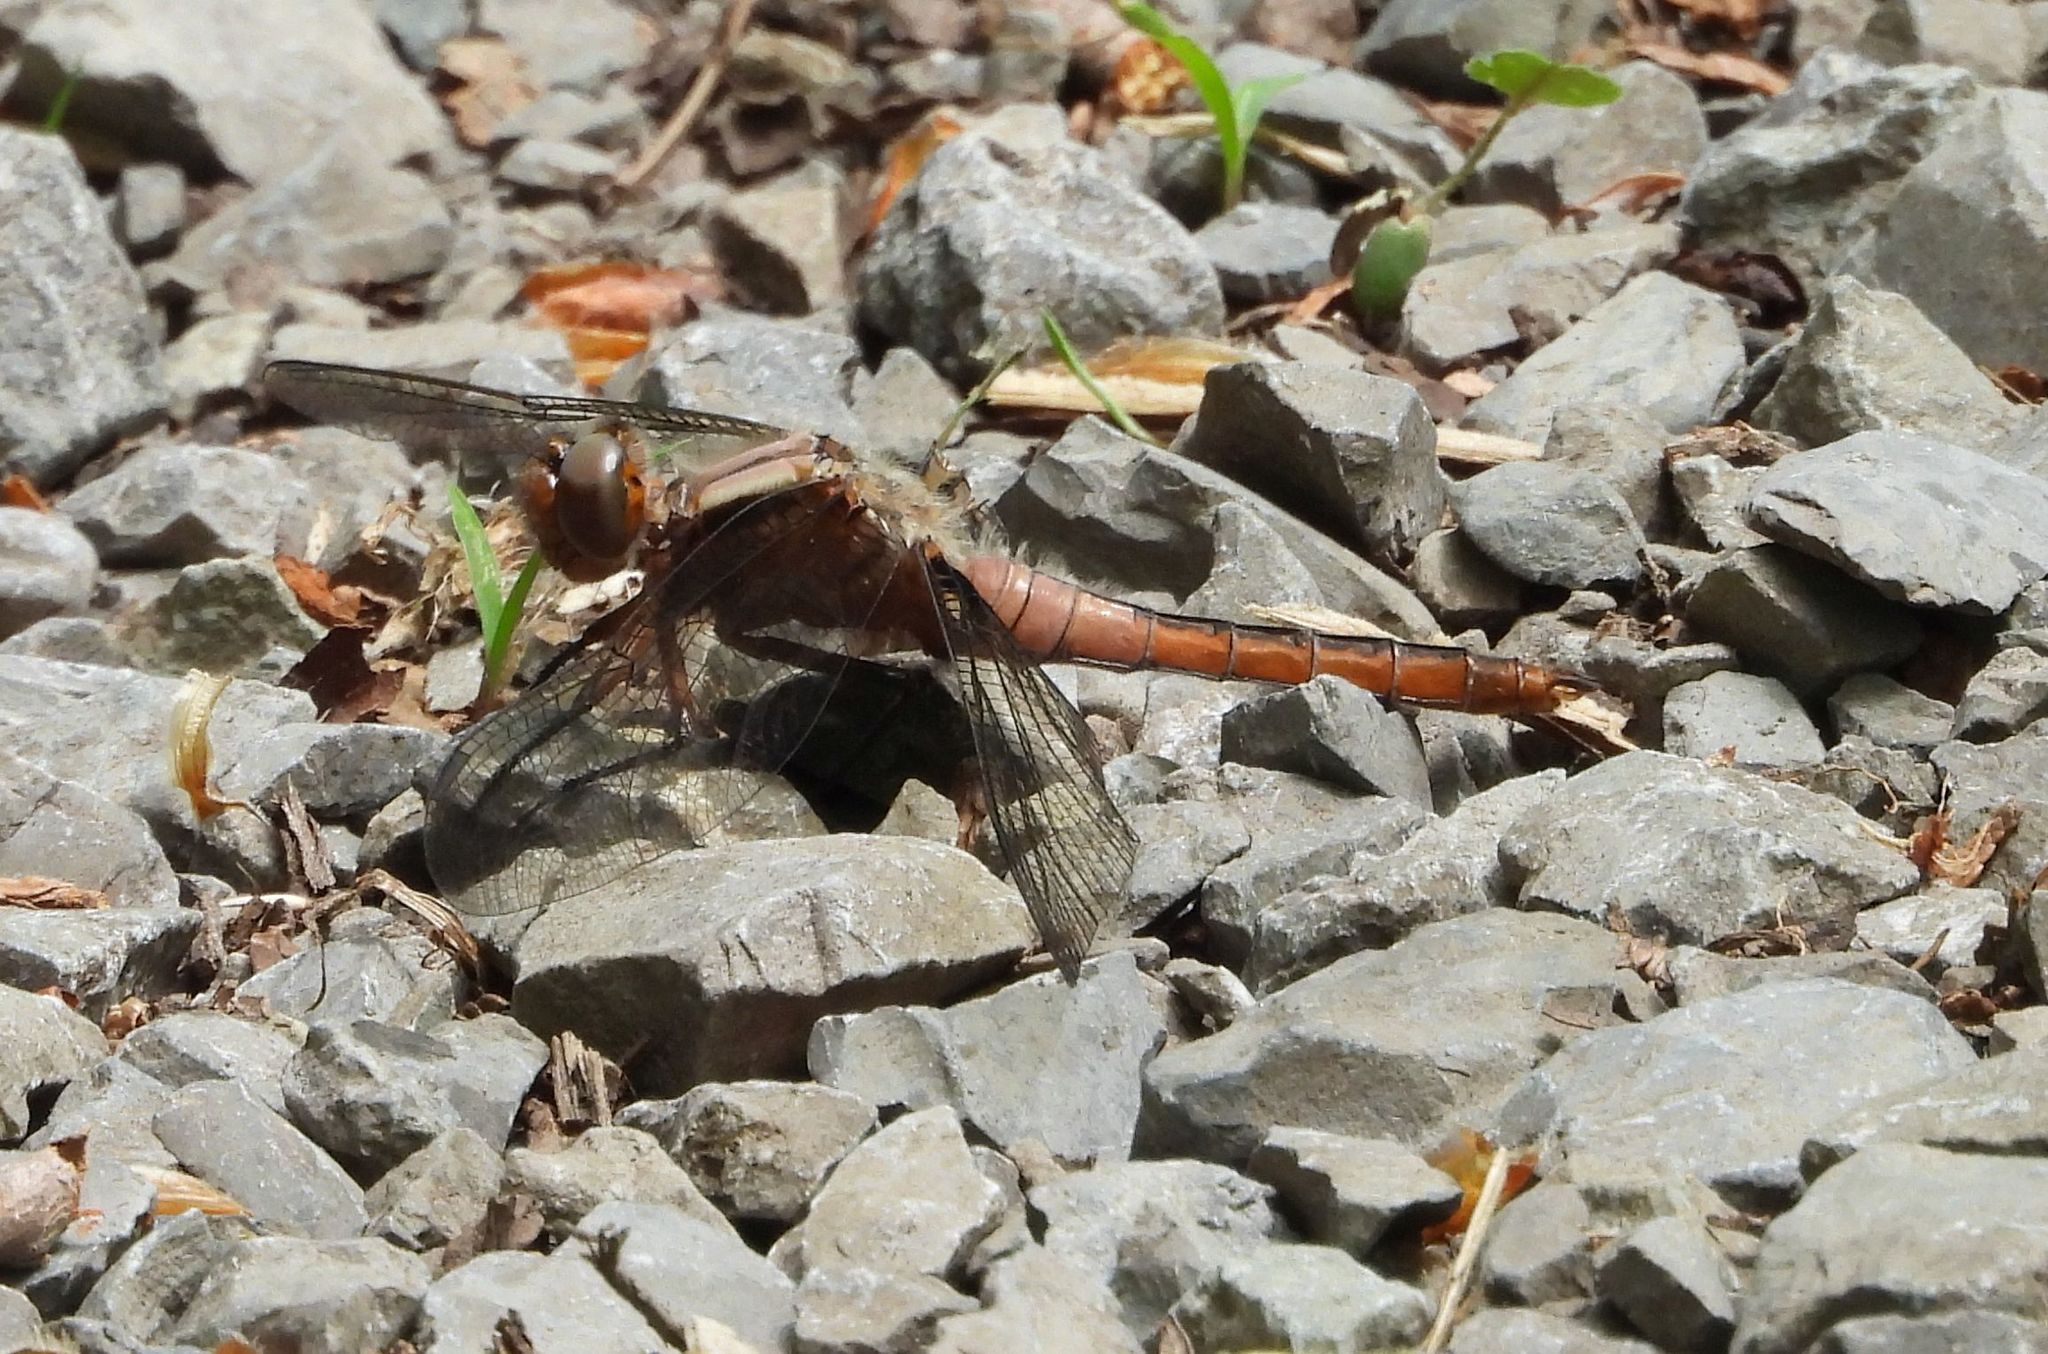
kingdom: Animalia
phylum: Arthropoda
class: Insecta
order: Odonata
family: Libellulidae
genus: Ladona
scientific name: Ladona julia
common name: Chalk-fronted corporal
